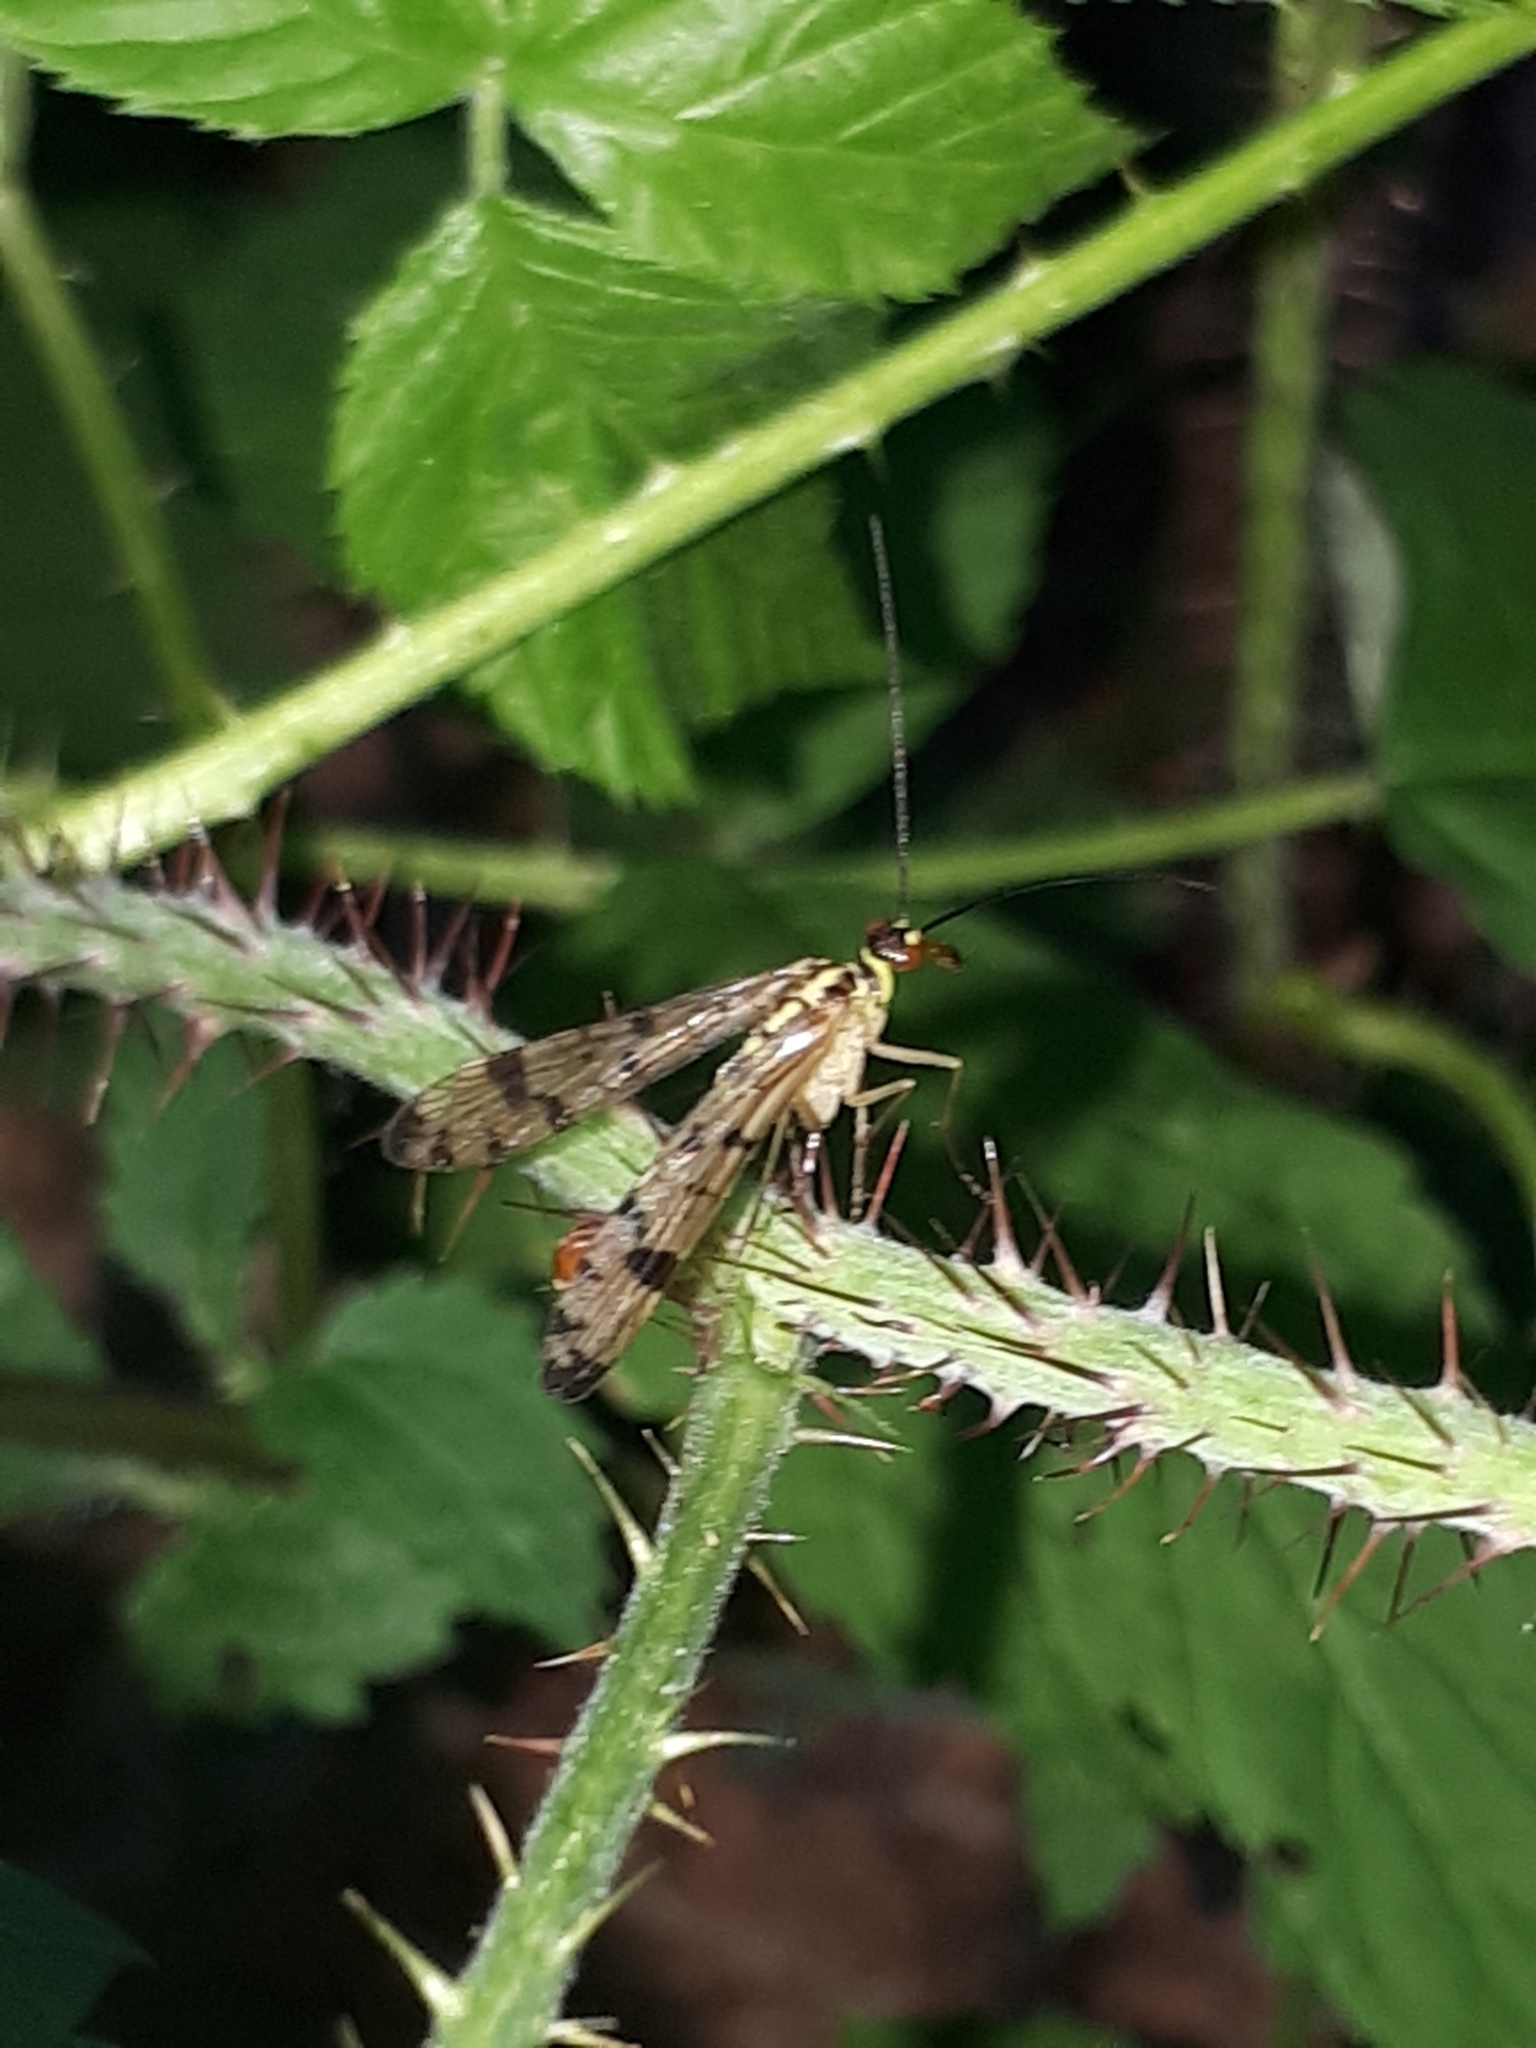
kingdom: Animalia
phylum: Arthropoda
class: Insecta
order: Mecoptera
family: Panorpidae
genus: Panorpa
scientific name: Panorpa germanica
